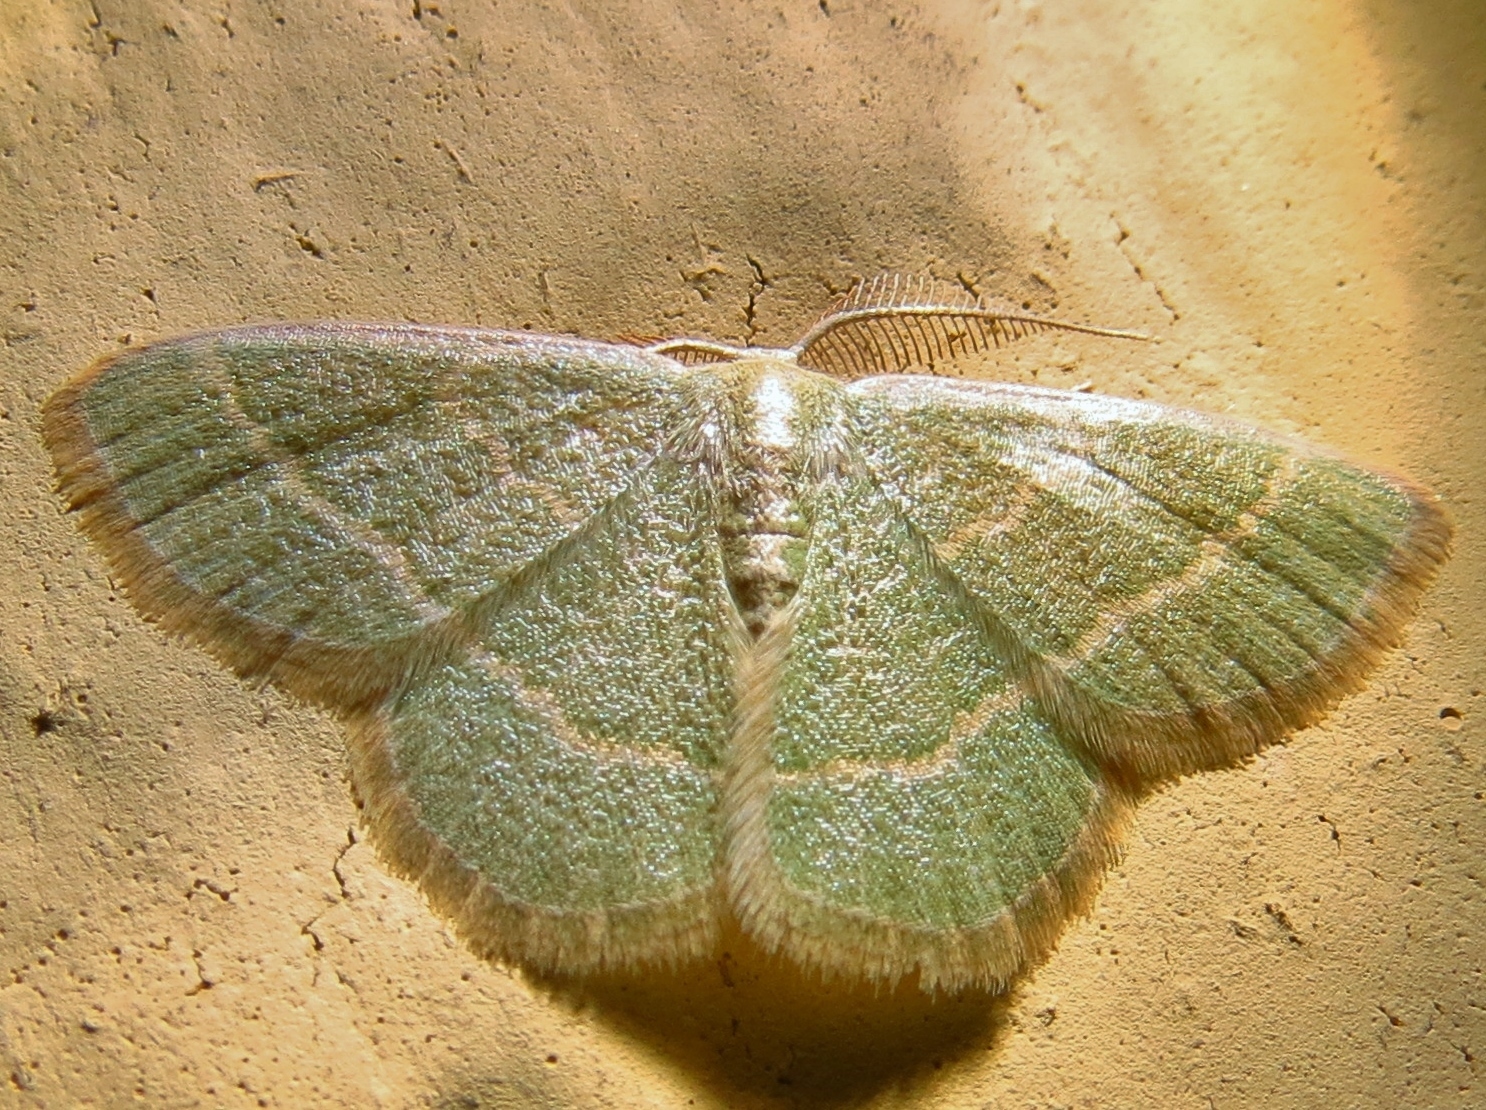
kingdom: Animalia
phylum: Arthropoda
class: Insecta
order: Lepidoptera
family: Geometridae
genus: Chlorochlamys
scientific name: Chlorochlamys chloroleucaria
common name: Blackberry looper
